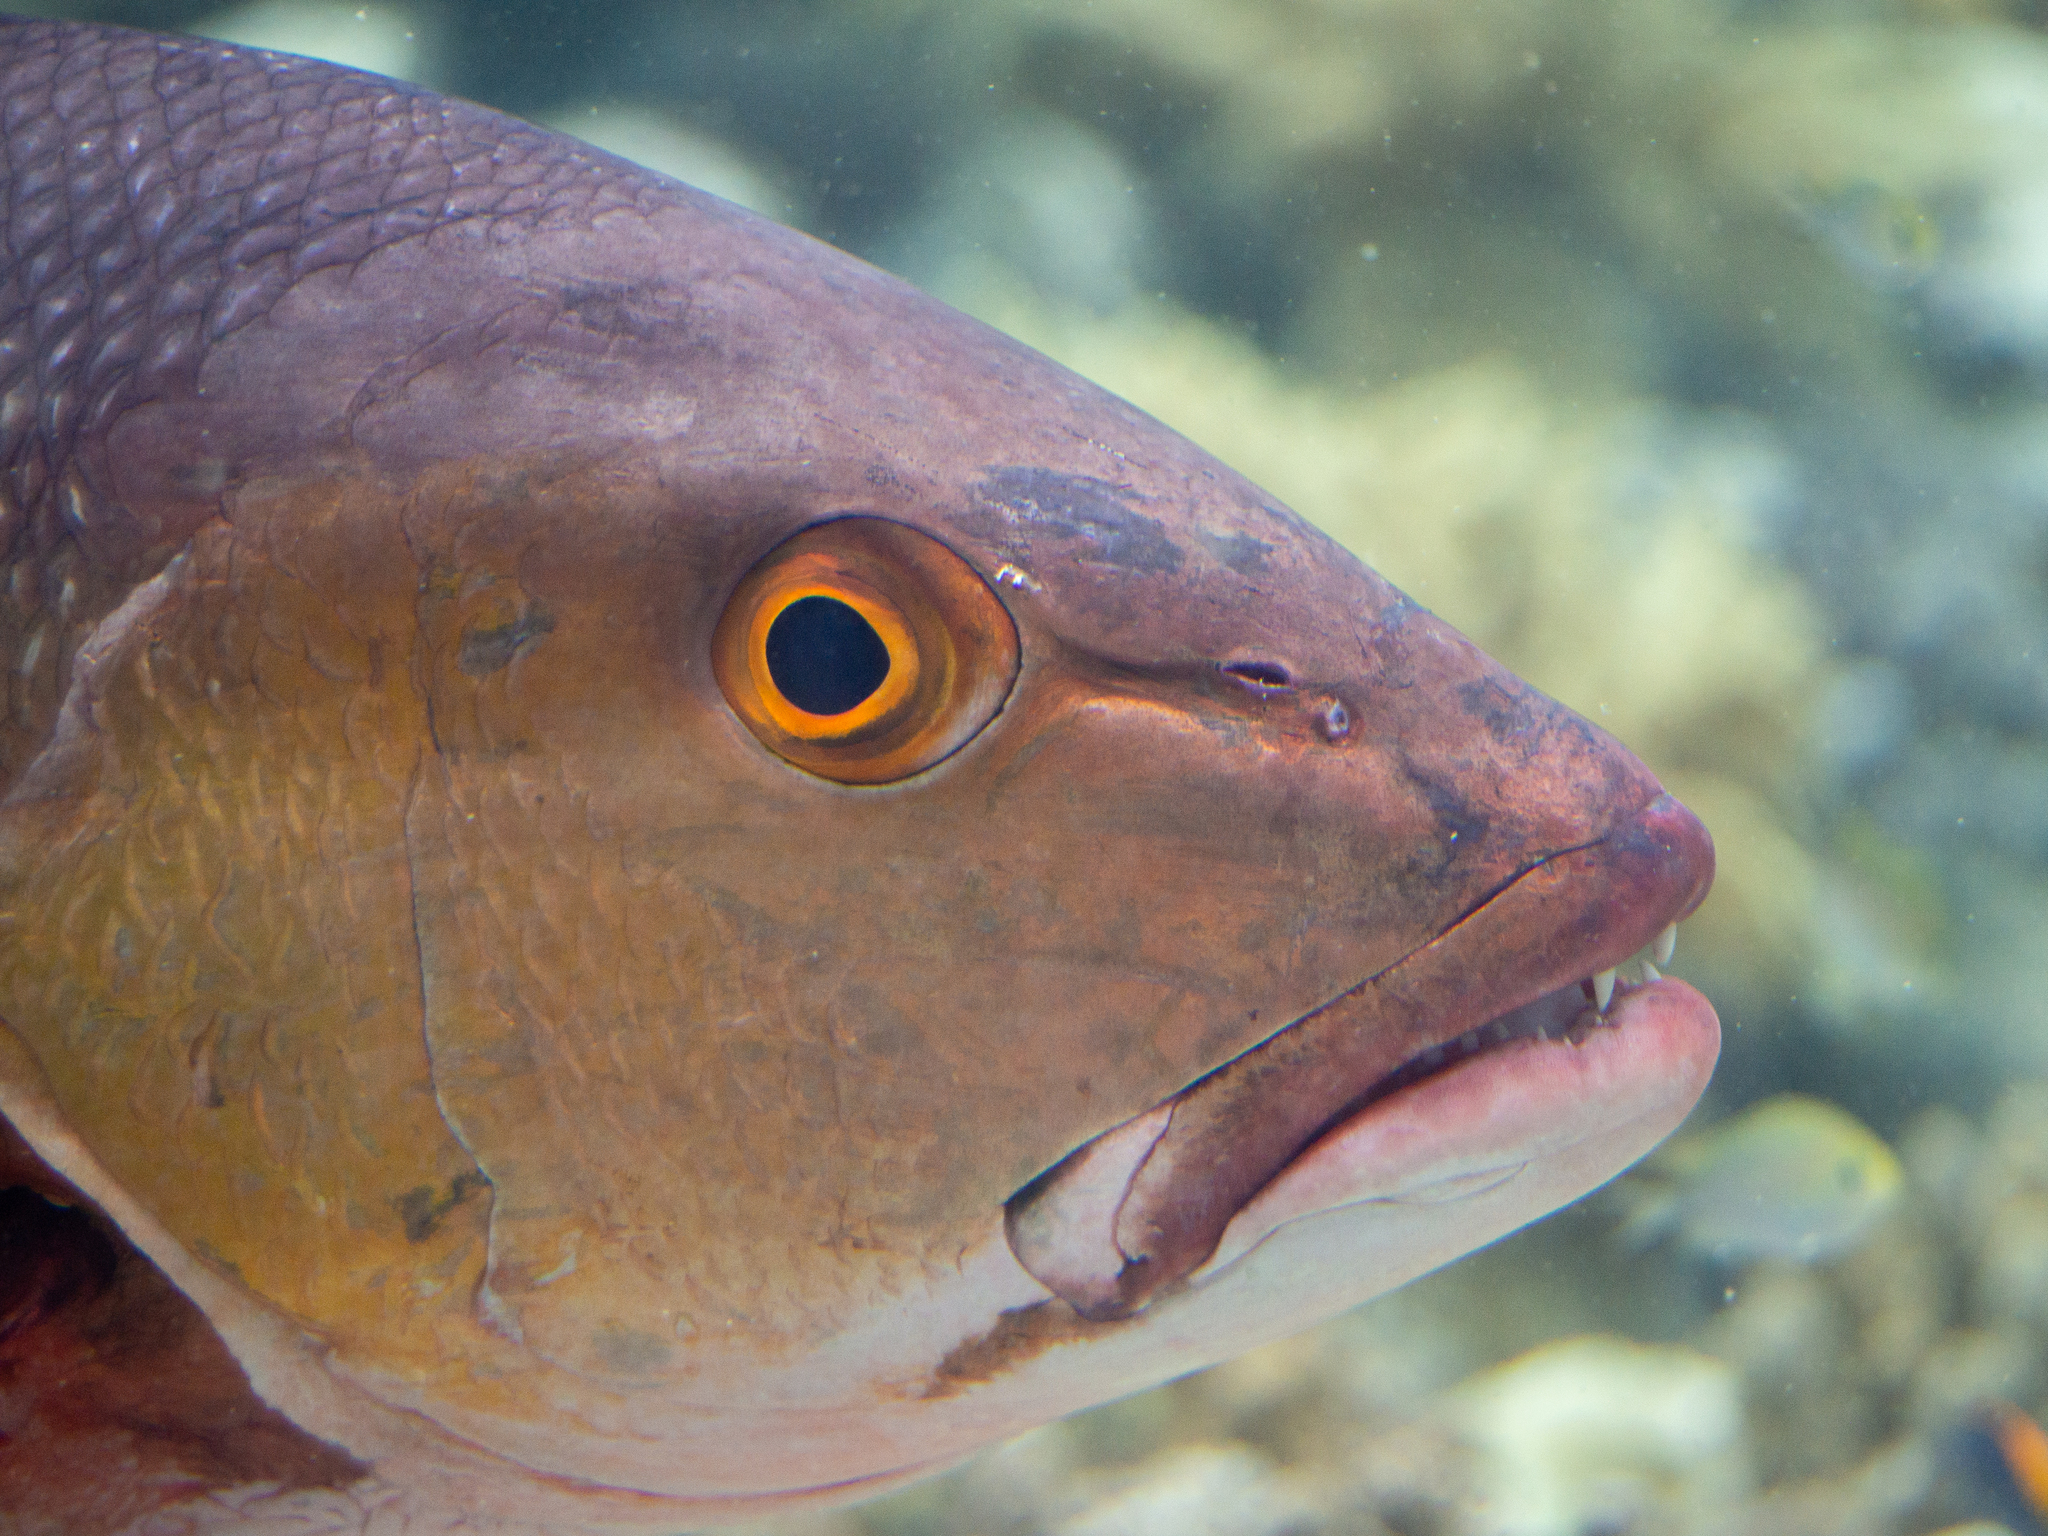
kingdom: Animalia
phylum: Chordata
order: Perciformes
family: Lutjanidae
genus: Lutjanus
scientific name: Lutjanus bohar
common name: Red bass
